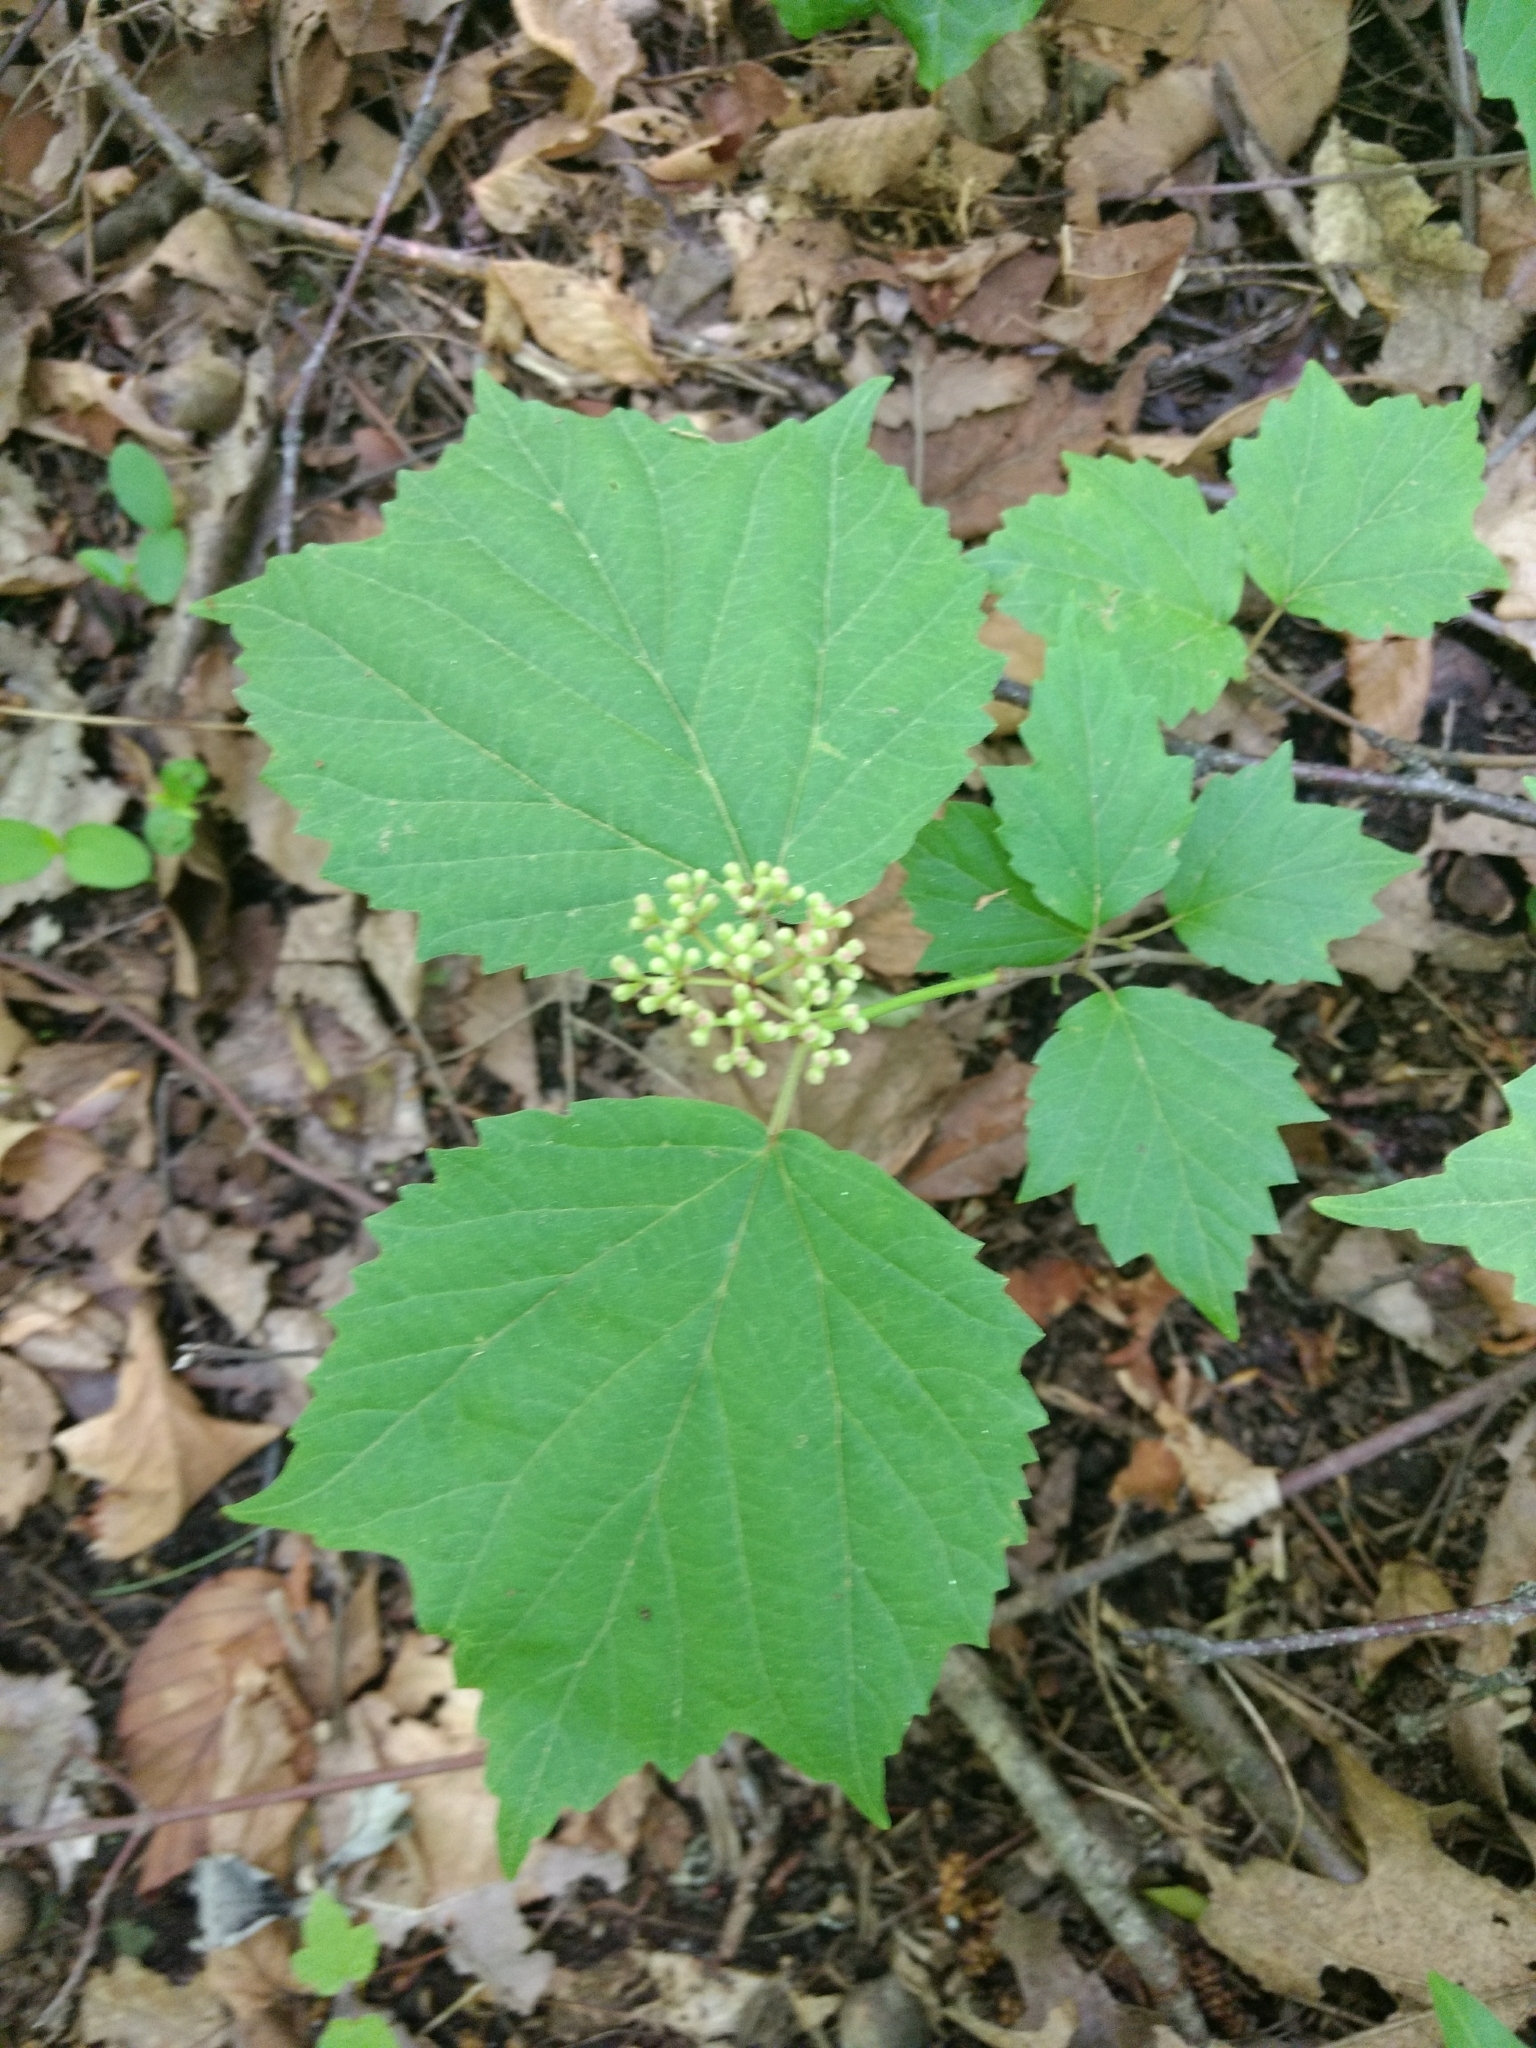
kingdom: Plantae
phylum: Tracheophyta
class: Magnoliopsida
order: Dipsacales
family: Viburnaceae
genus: Viburnum
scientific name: Viburnum acerifolium
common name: Dockmackie
